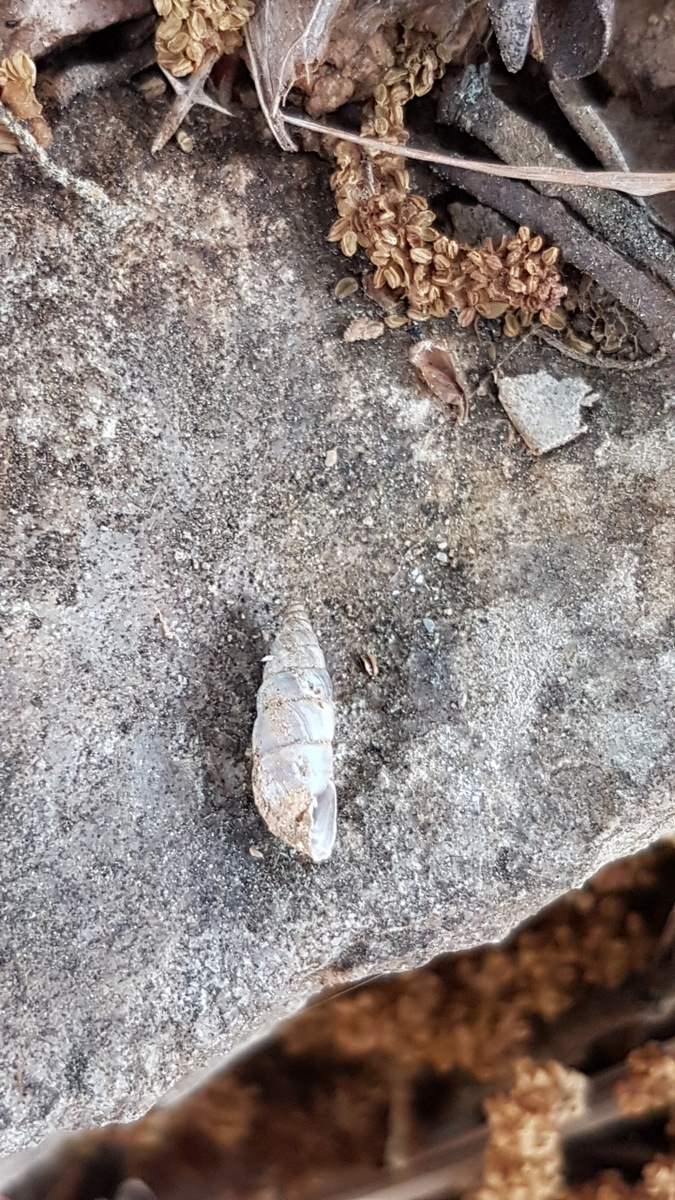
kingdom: Animalia
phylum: Mollusca
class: Gastropoda
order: Stylommatophora
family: Chondrinidae
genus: Solatopupa
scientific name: Solatopupa similis
